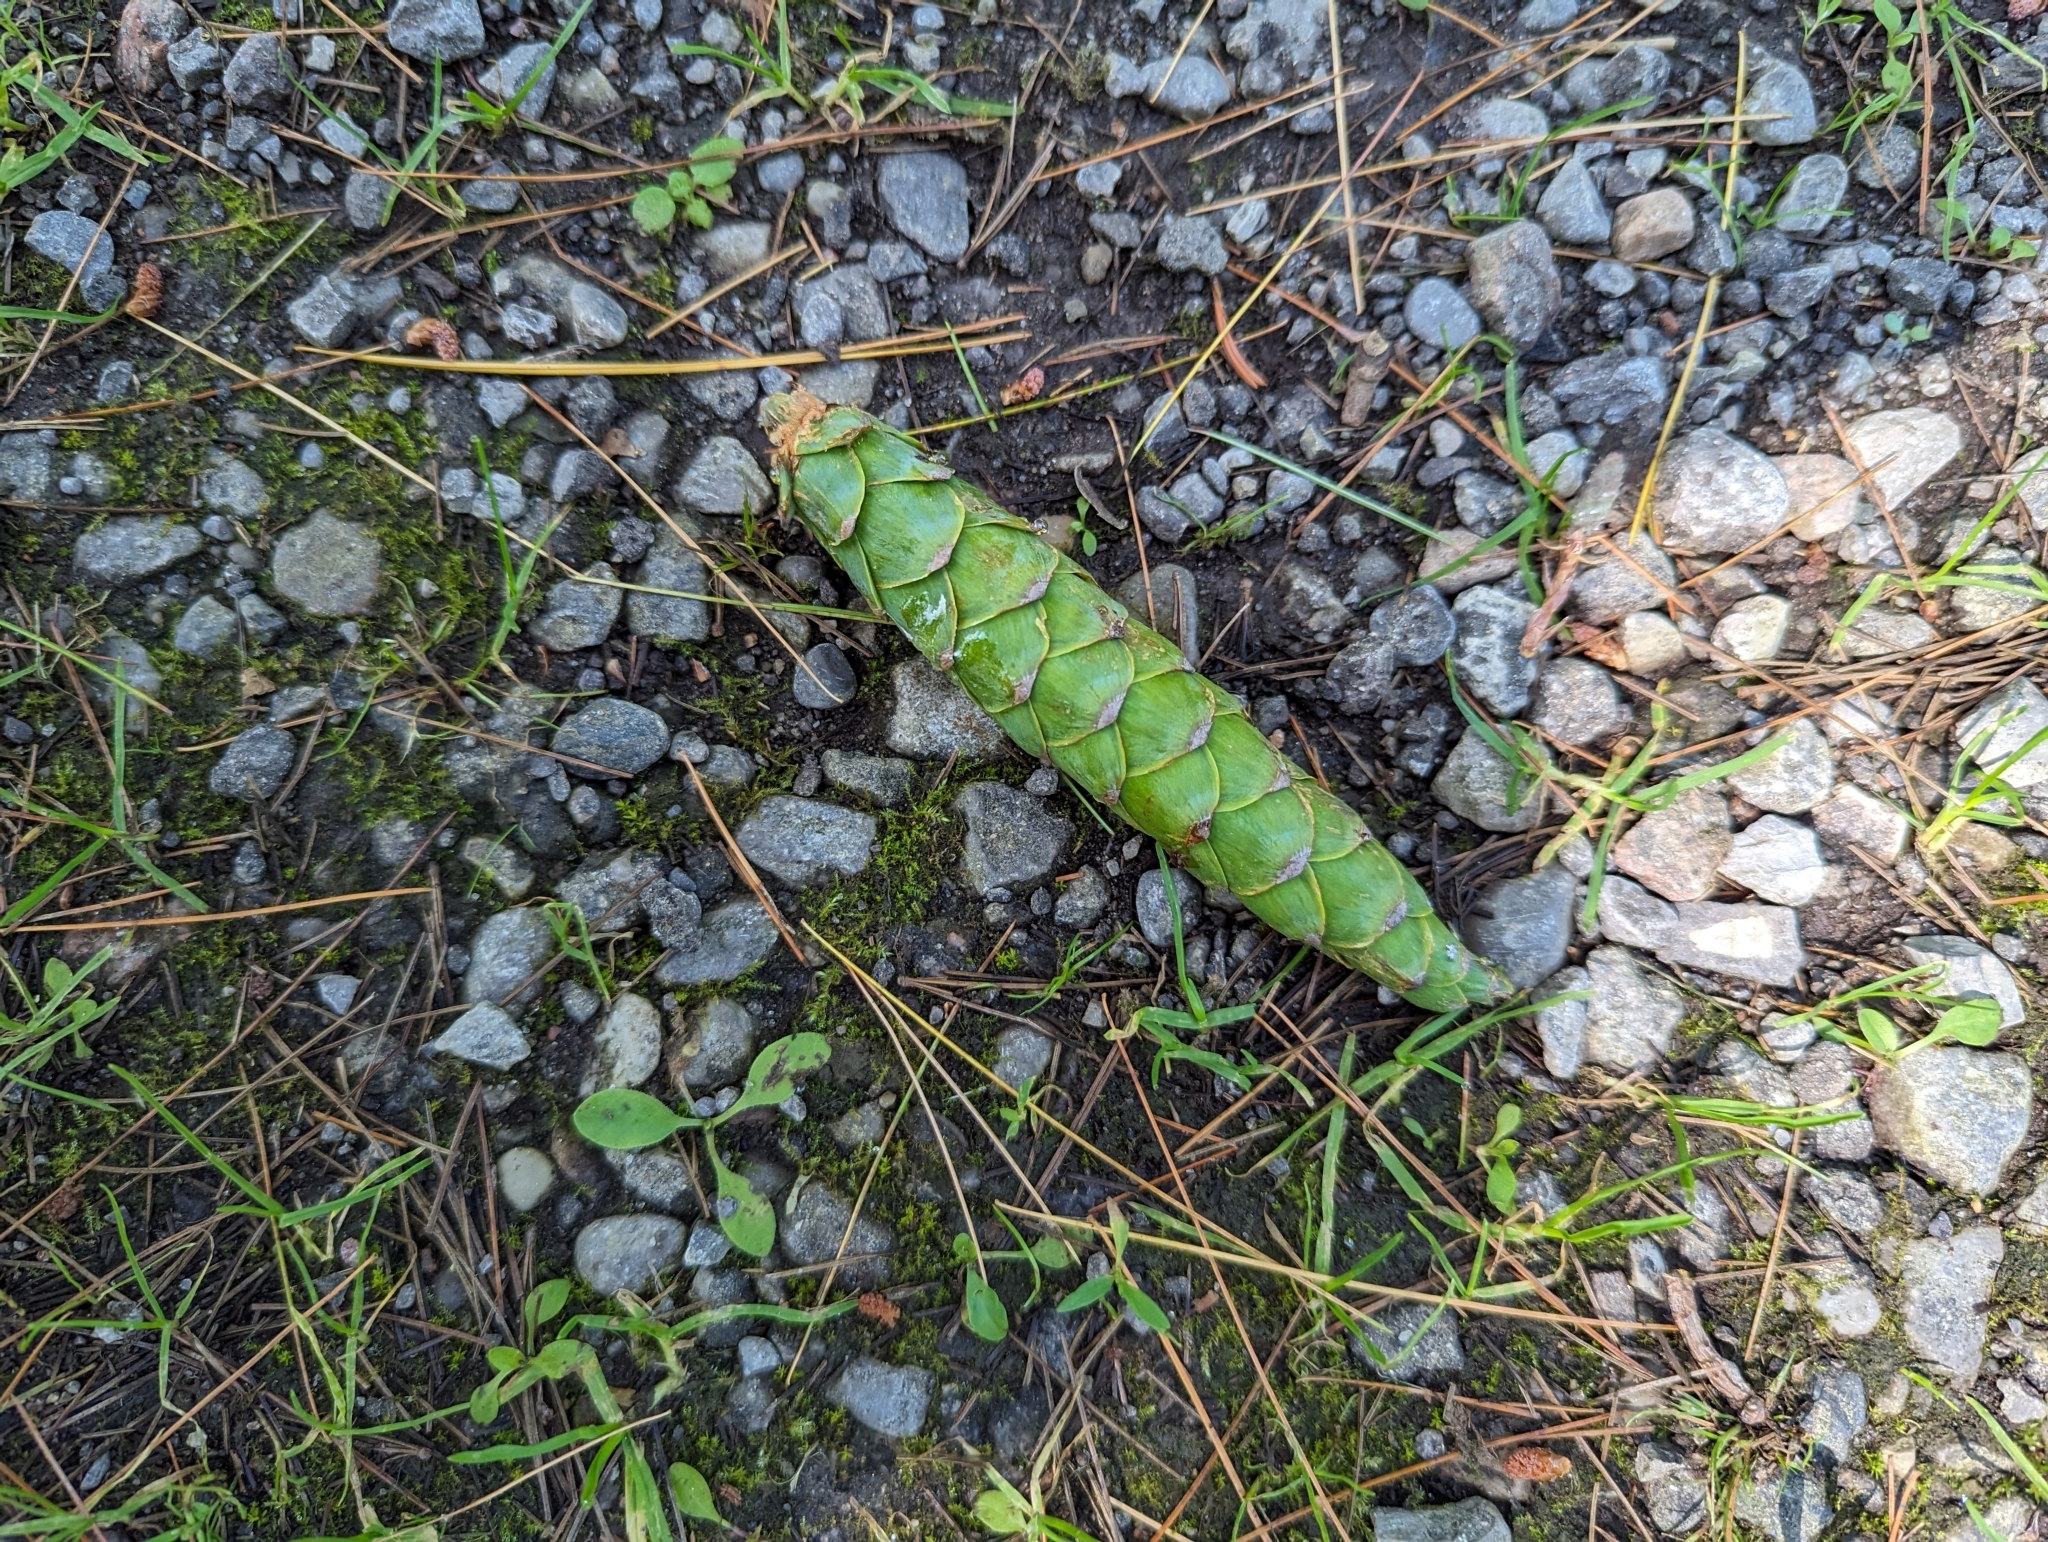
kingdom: Plantae
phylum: Tracheophyta
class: Pinopsida
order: Pinales
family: Pinaceae
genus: Pinus
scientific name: Pinus strobus
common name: Weymouth pine
